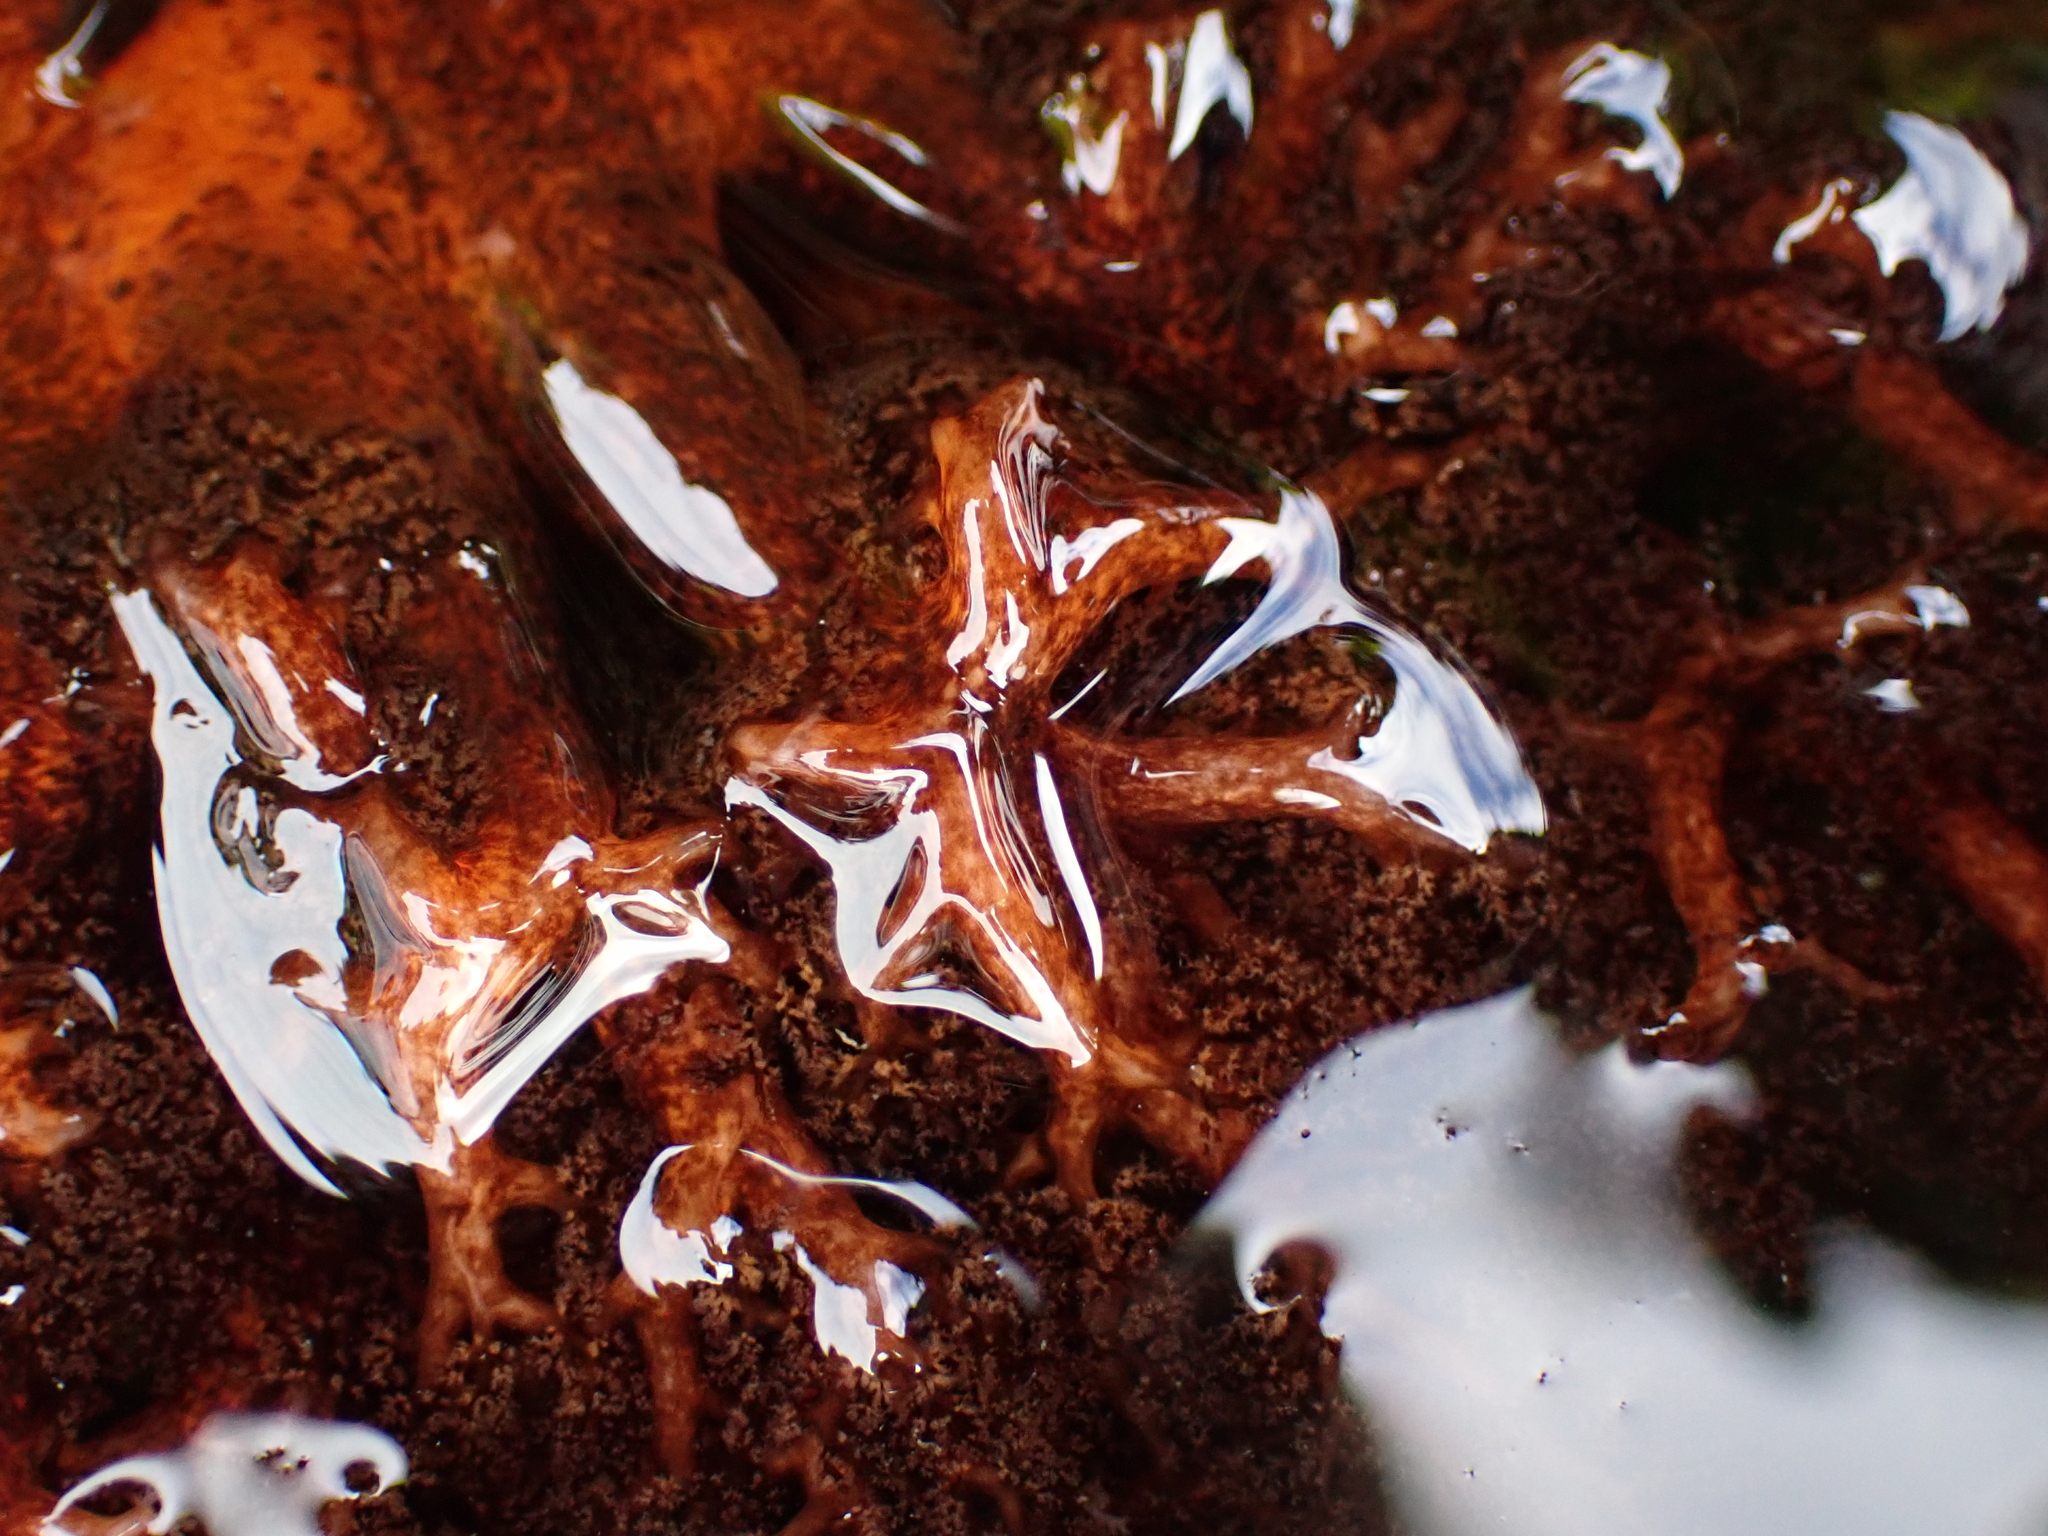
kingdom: Animalia
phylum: Echinodermata
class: Holothuroidea
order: Dendrochirotida
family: Cucumariidae
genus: Cucumaria
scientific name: Cucumaria miniata
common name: Orange sea cucumber
